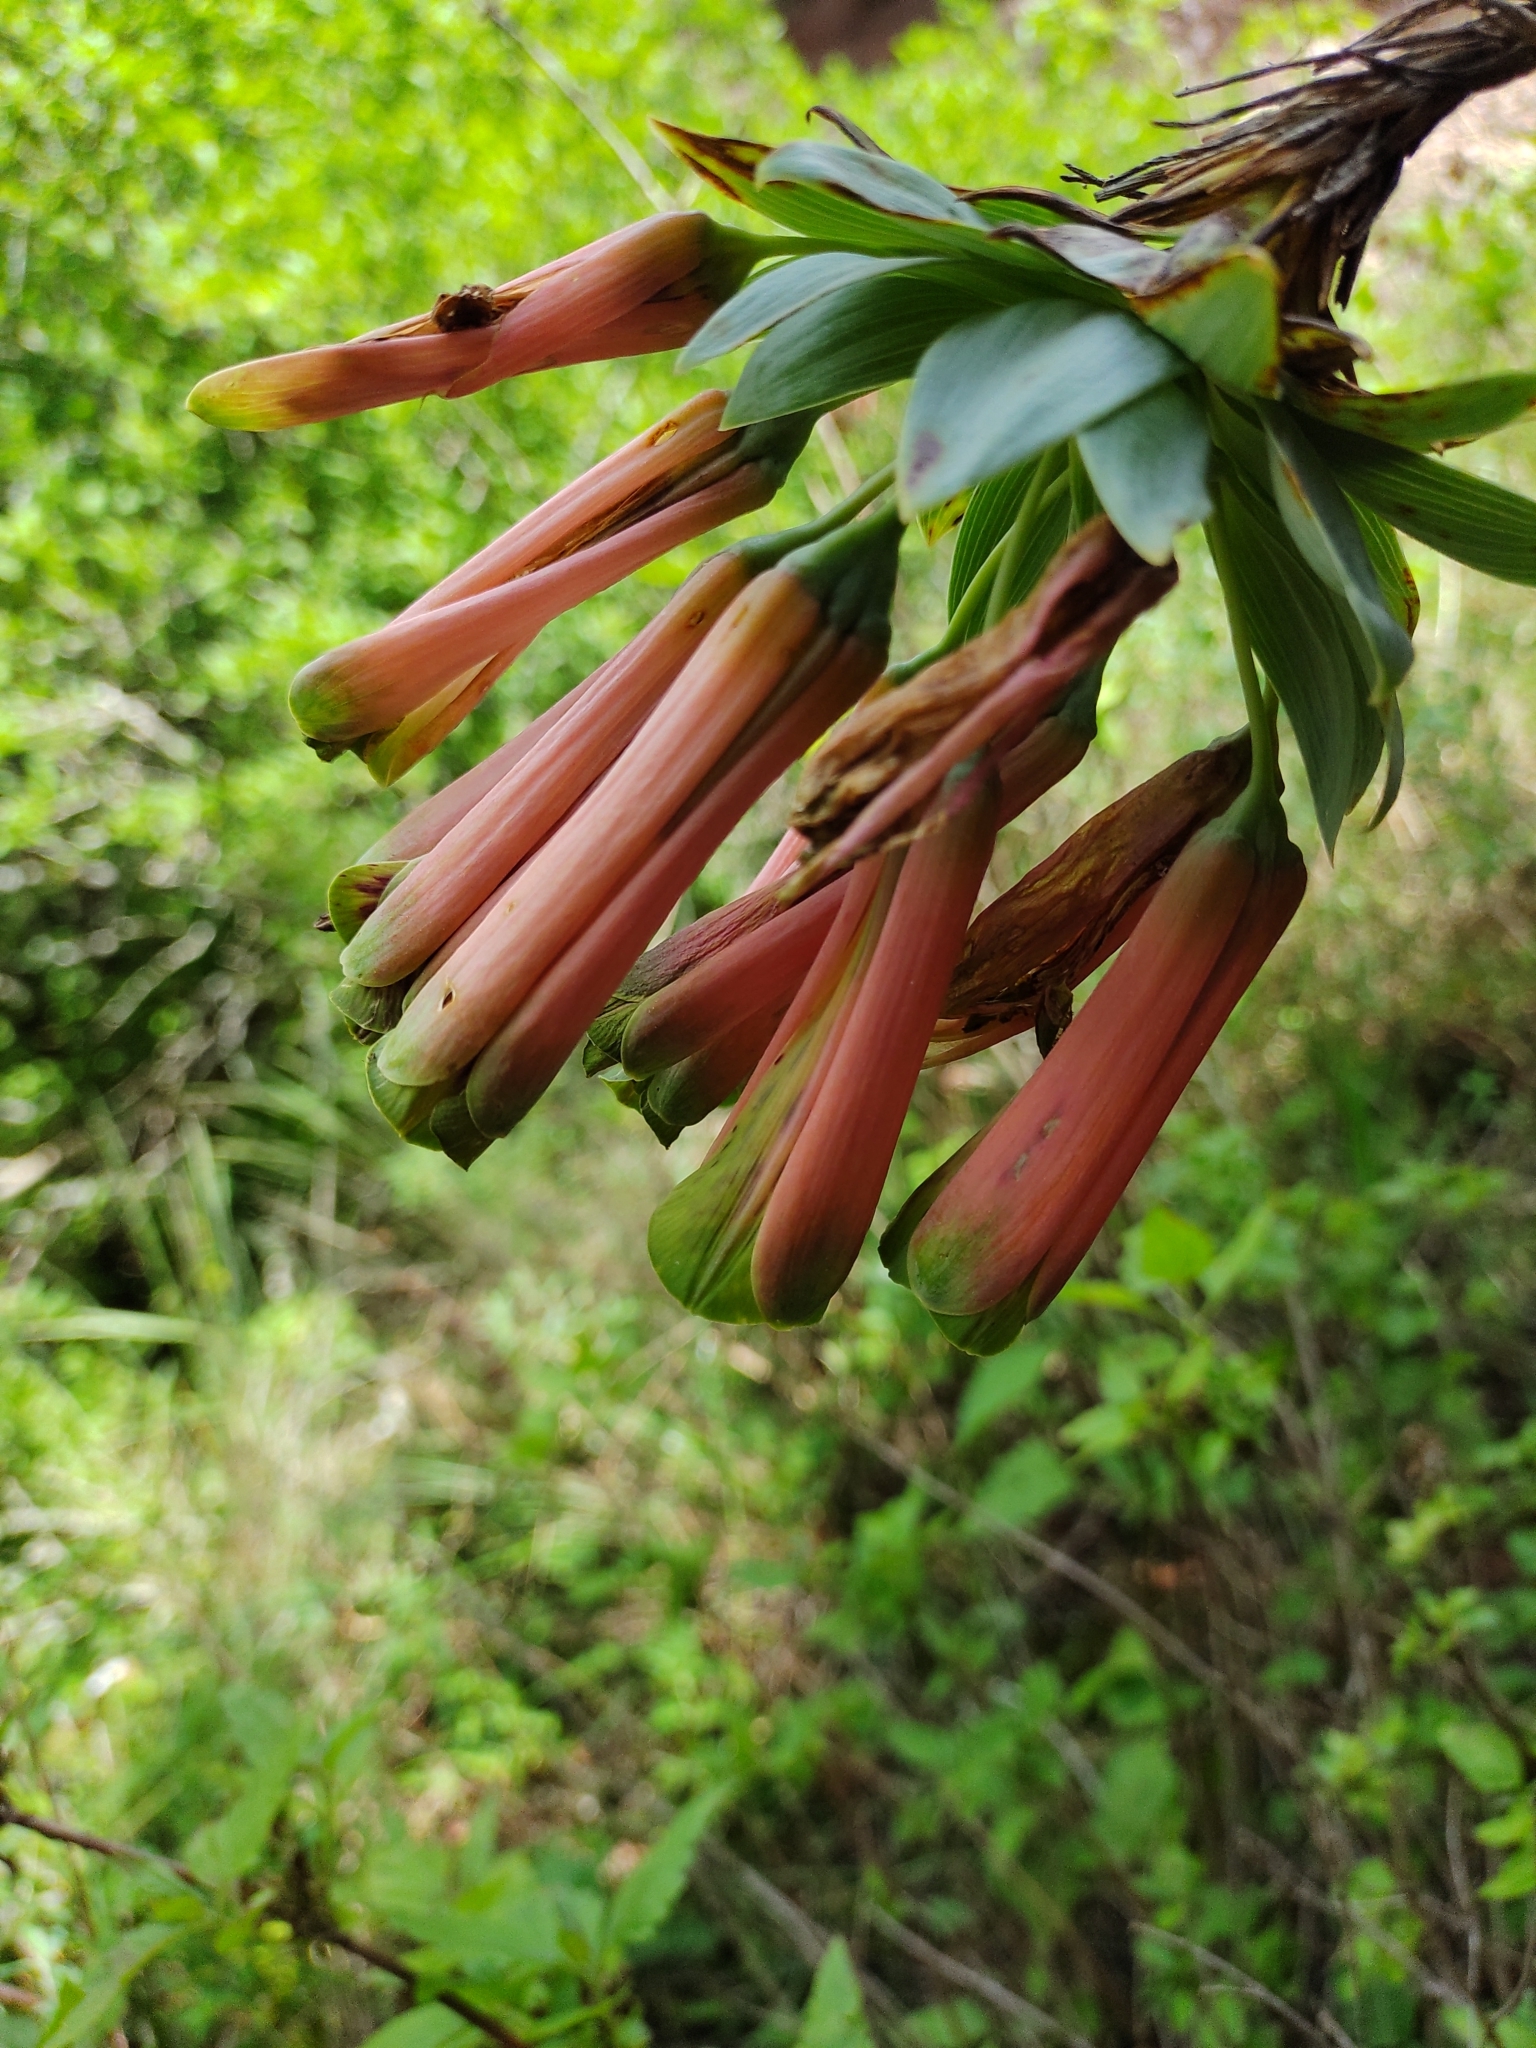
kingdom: Plantae
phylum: Tracheophyta
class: Liliopsida
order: Liliales
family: Alstroemeriaceae
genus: Bomarea
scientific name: Bomarea macrocephala
